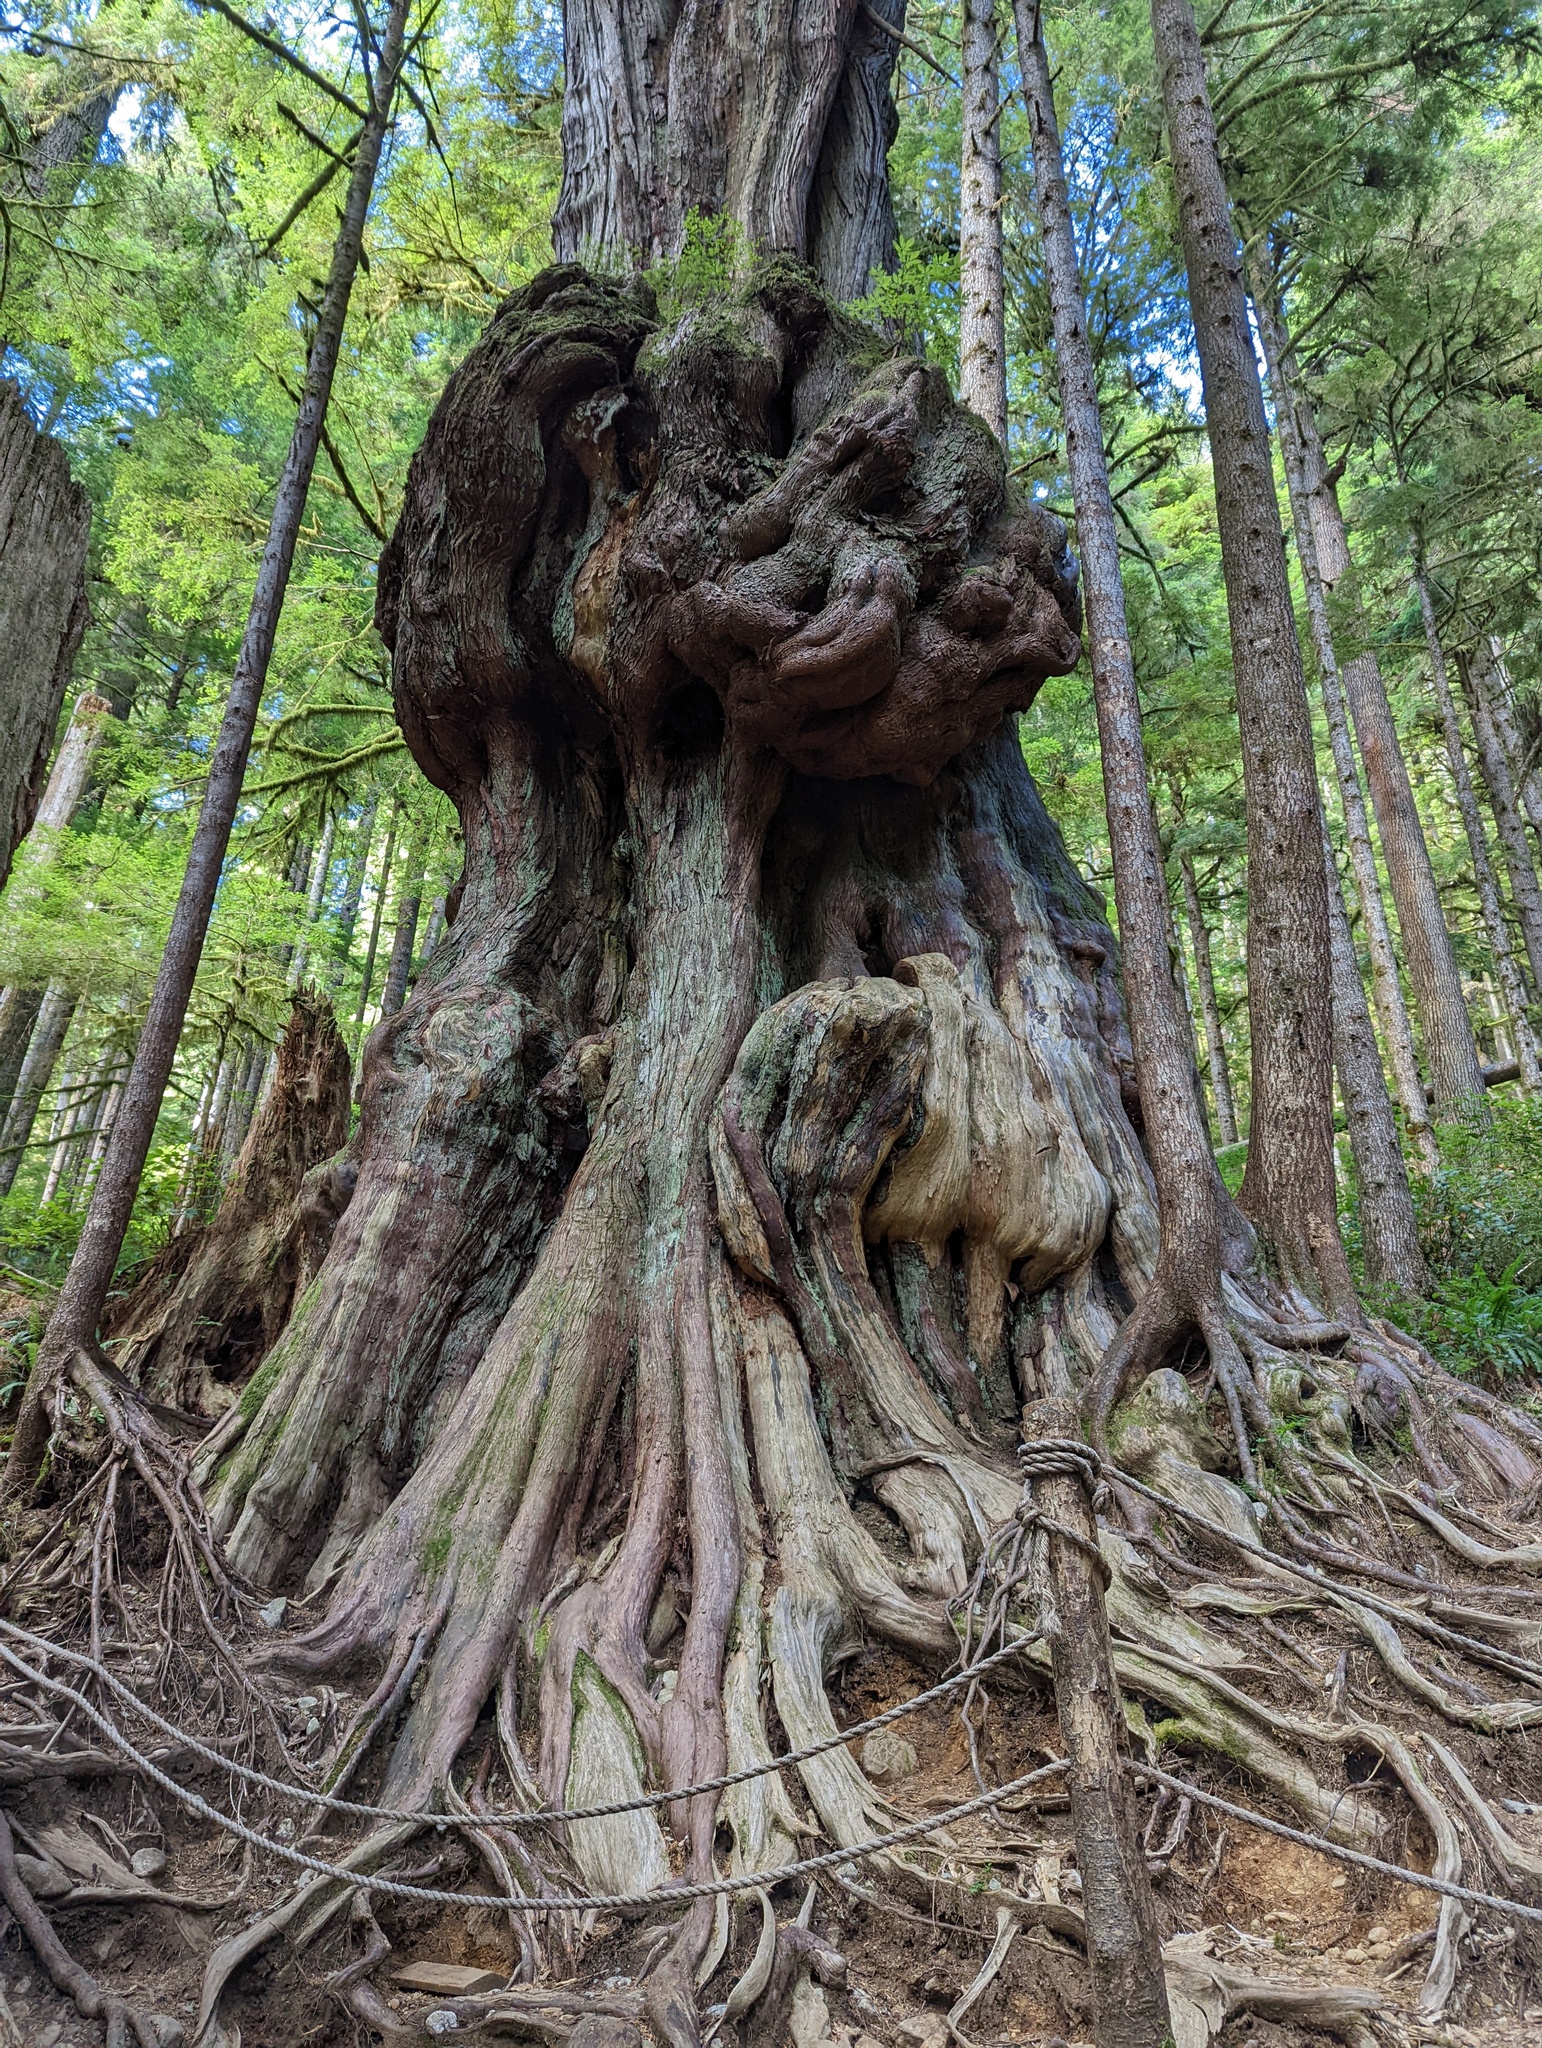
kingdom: Plantae
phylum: Tracheophyta
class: Pinopsida
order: Pinales
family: Cupressaceae
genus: Thuja
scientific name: Thuja plicata
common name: Western red-cedar
